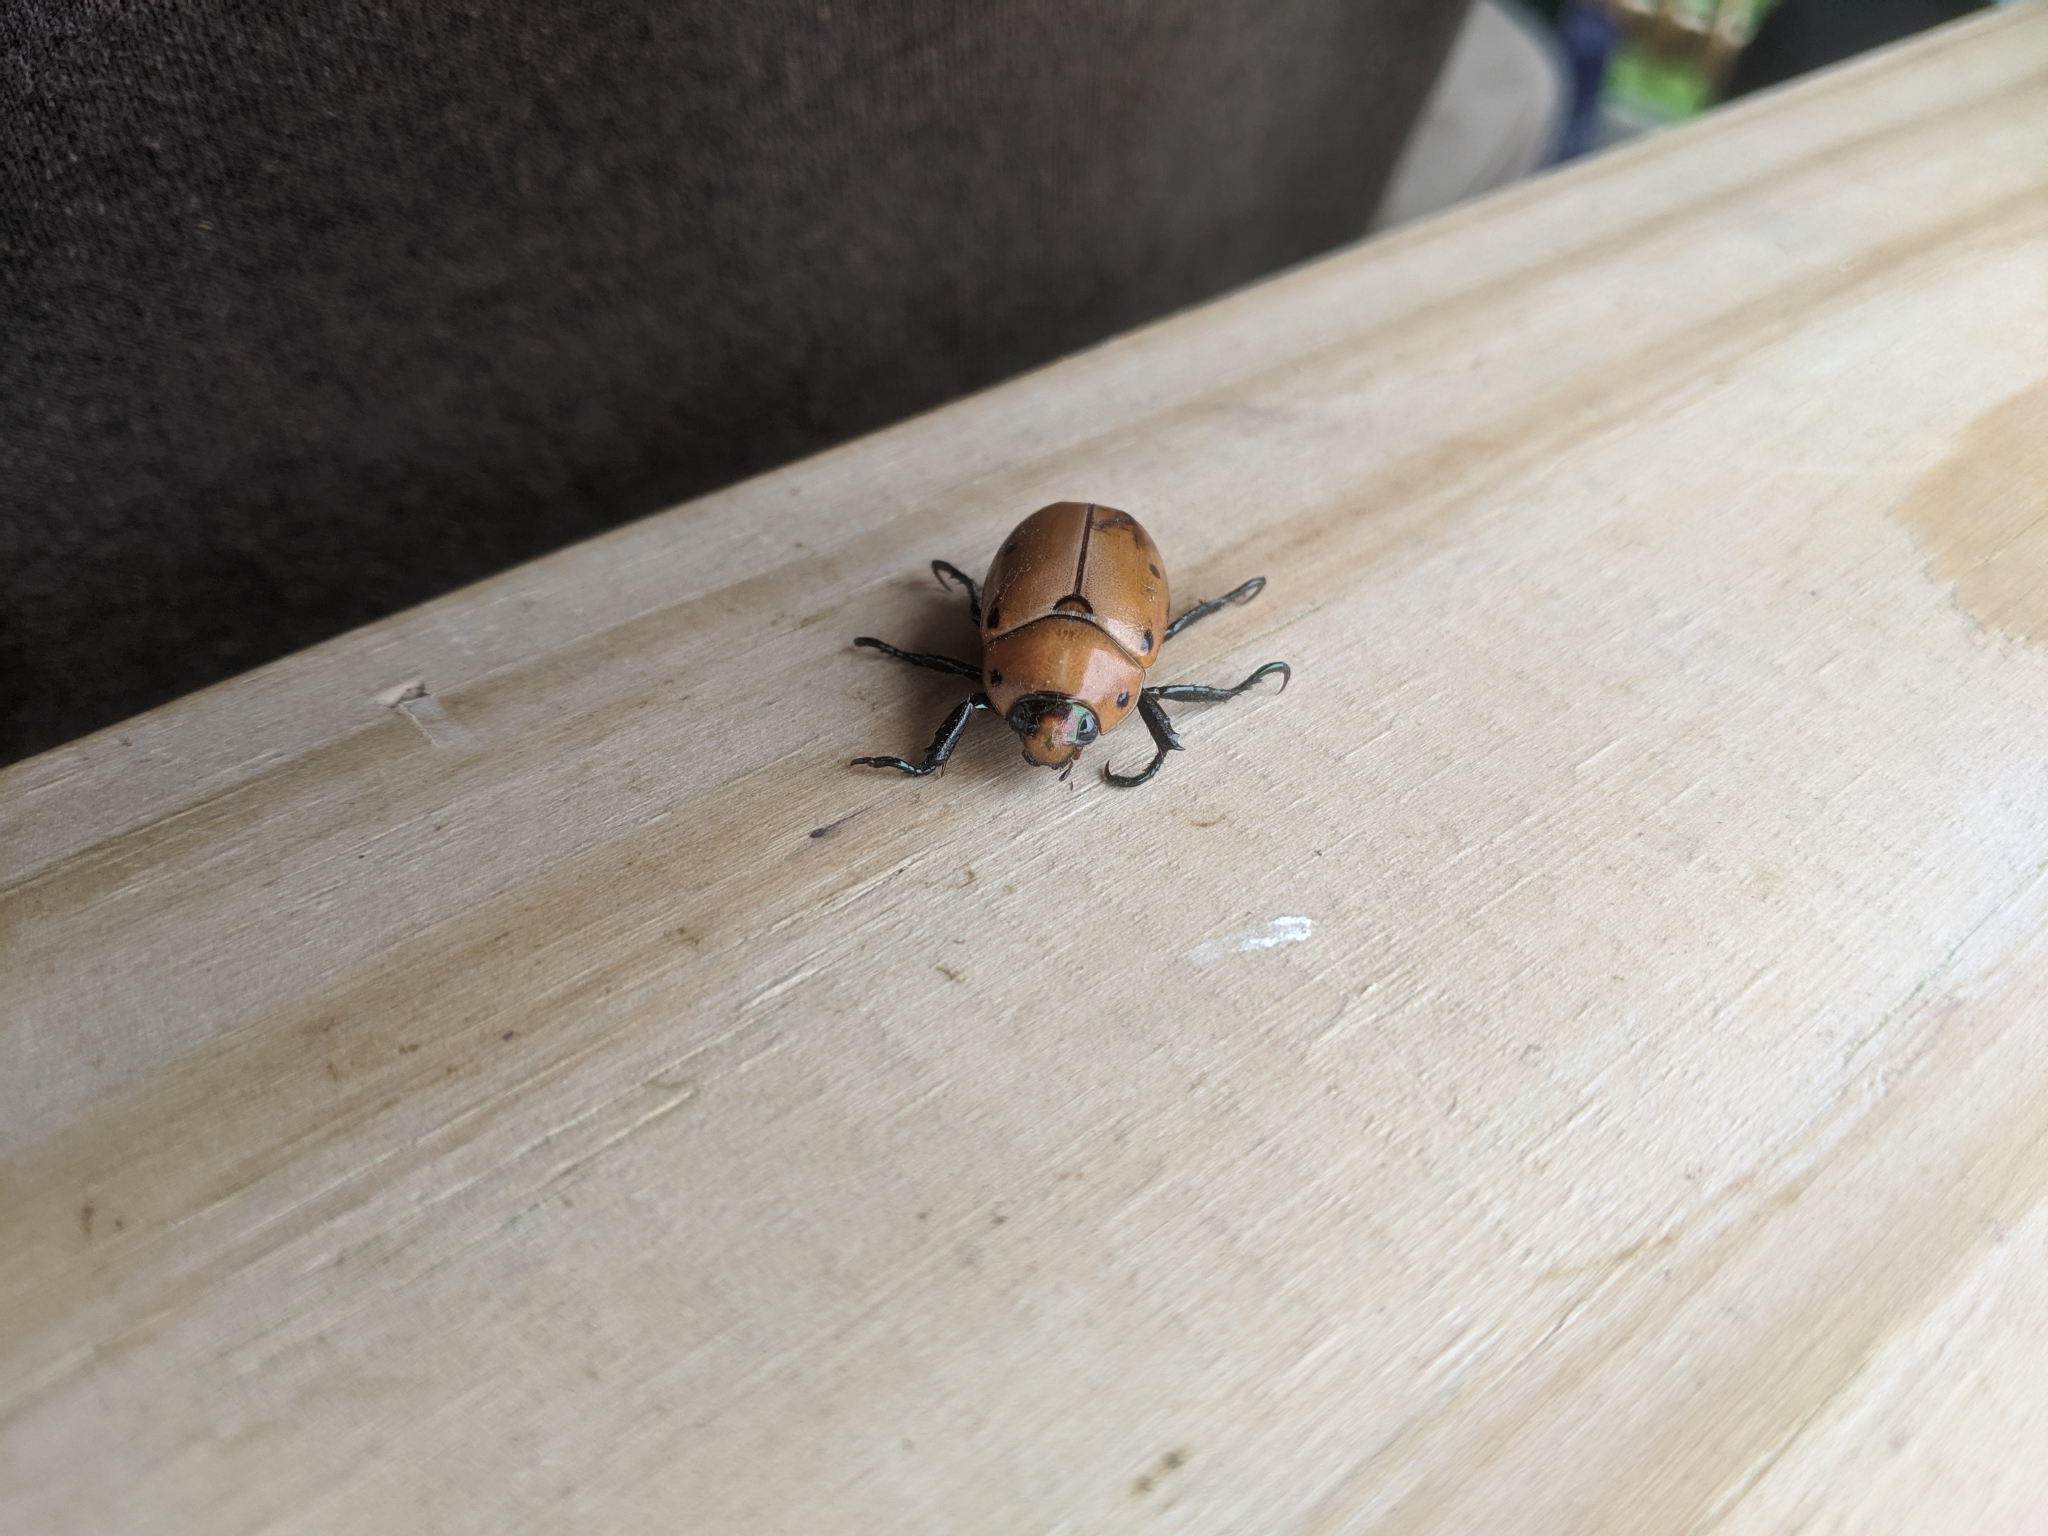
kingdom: Animalia
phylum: Arthropoda
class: Insecta
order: Coleoptera
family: Scarabaeidae
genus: Pelidnota
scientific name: Pelidnota punctata
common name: Grapevine beetle
